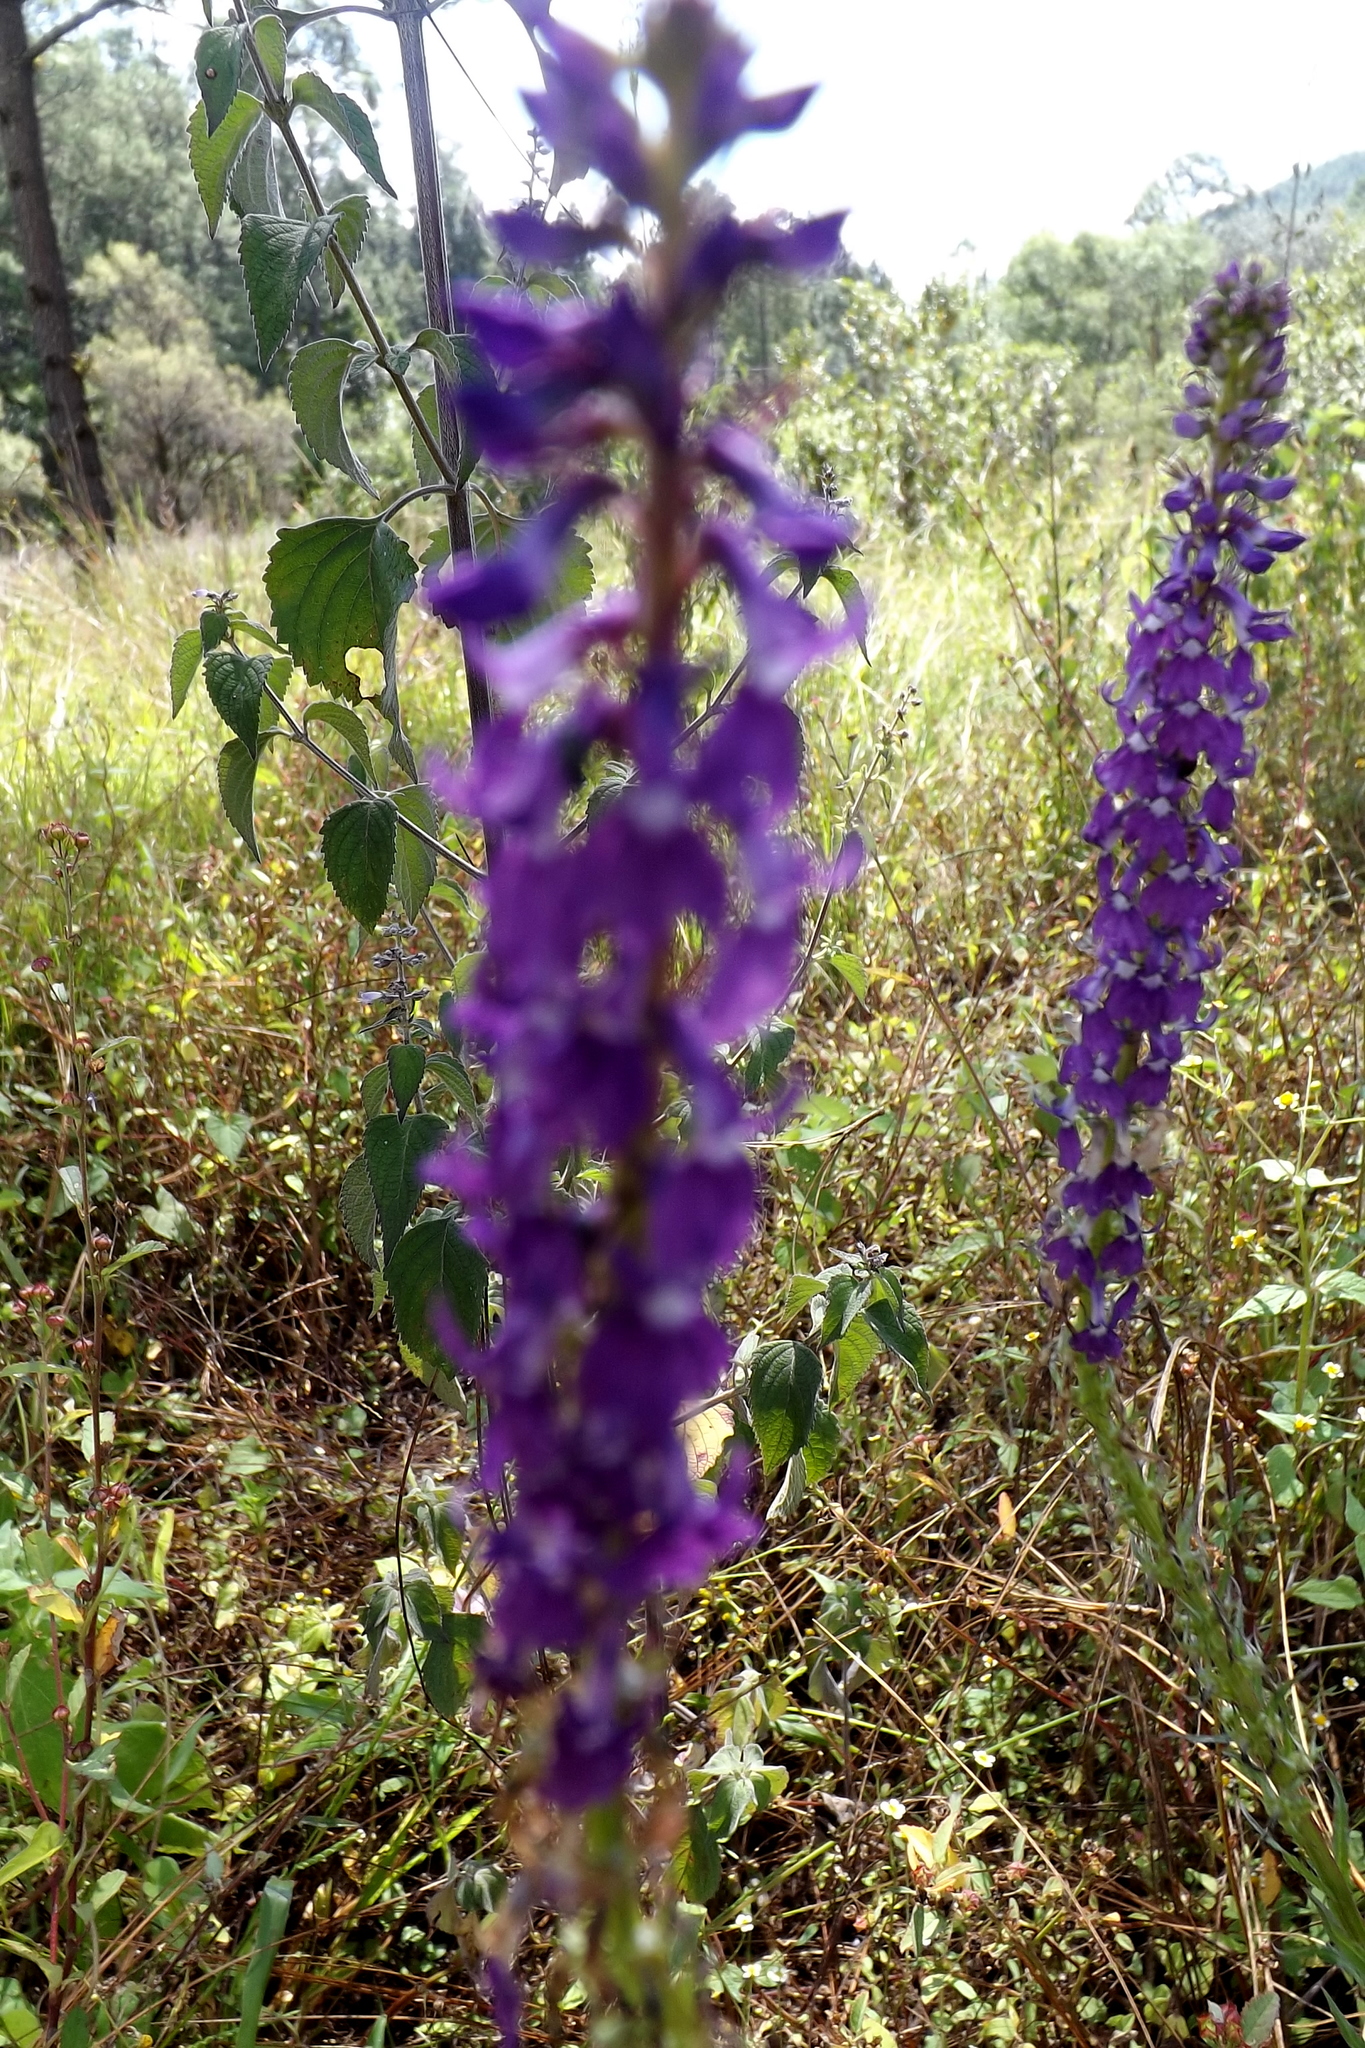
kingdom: Plantae
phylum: Tracheophyta
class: Magnoliopsida
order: Asterales
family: Campanulaceae
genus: Lobelia
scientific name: Lobelia fenestralis
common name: Leafy lobelia
